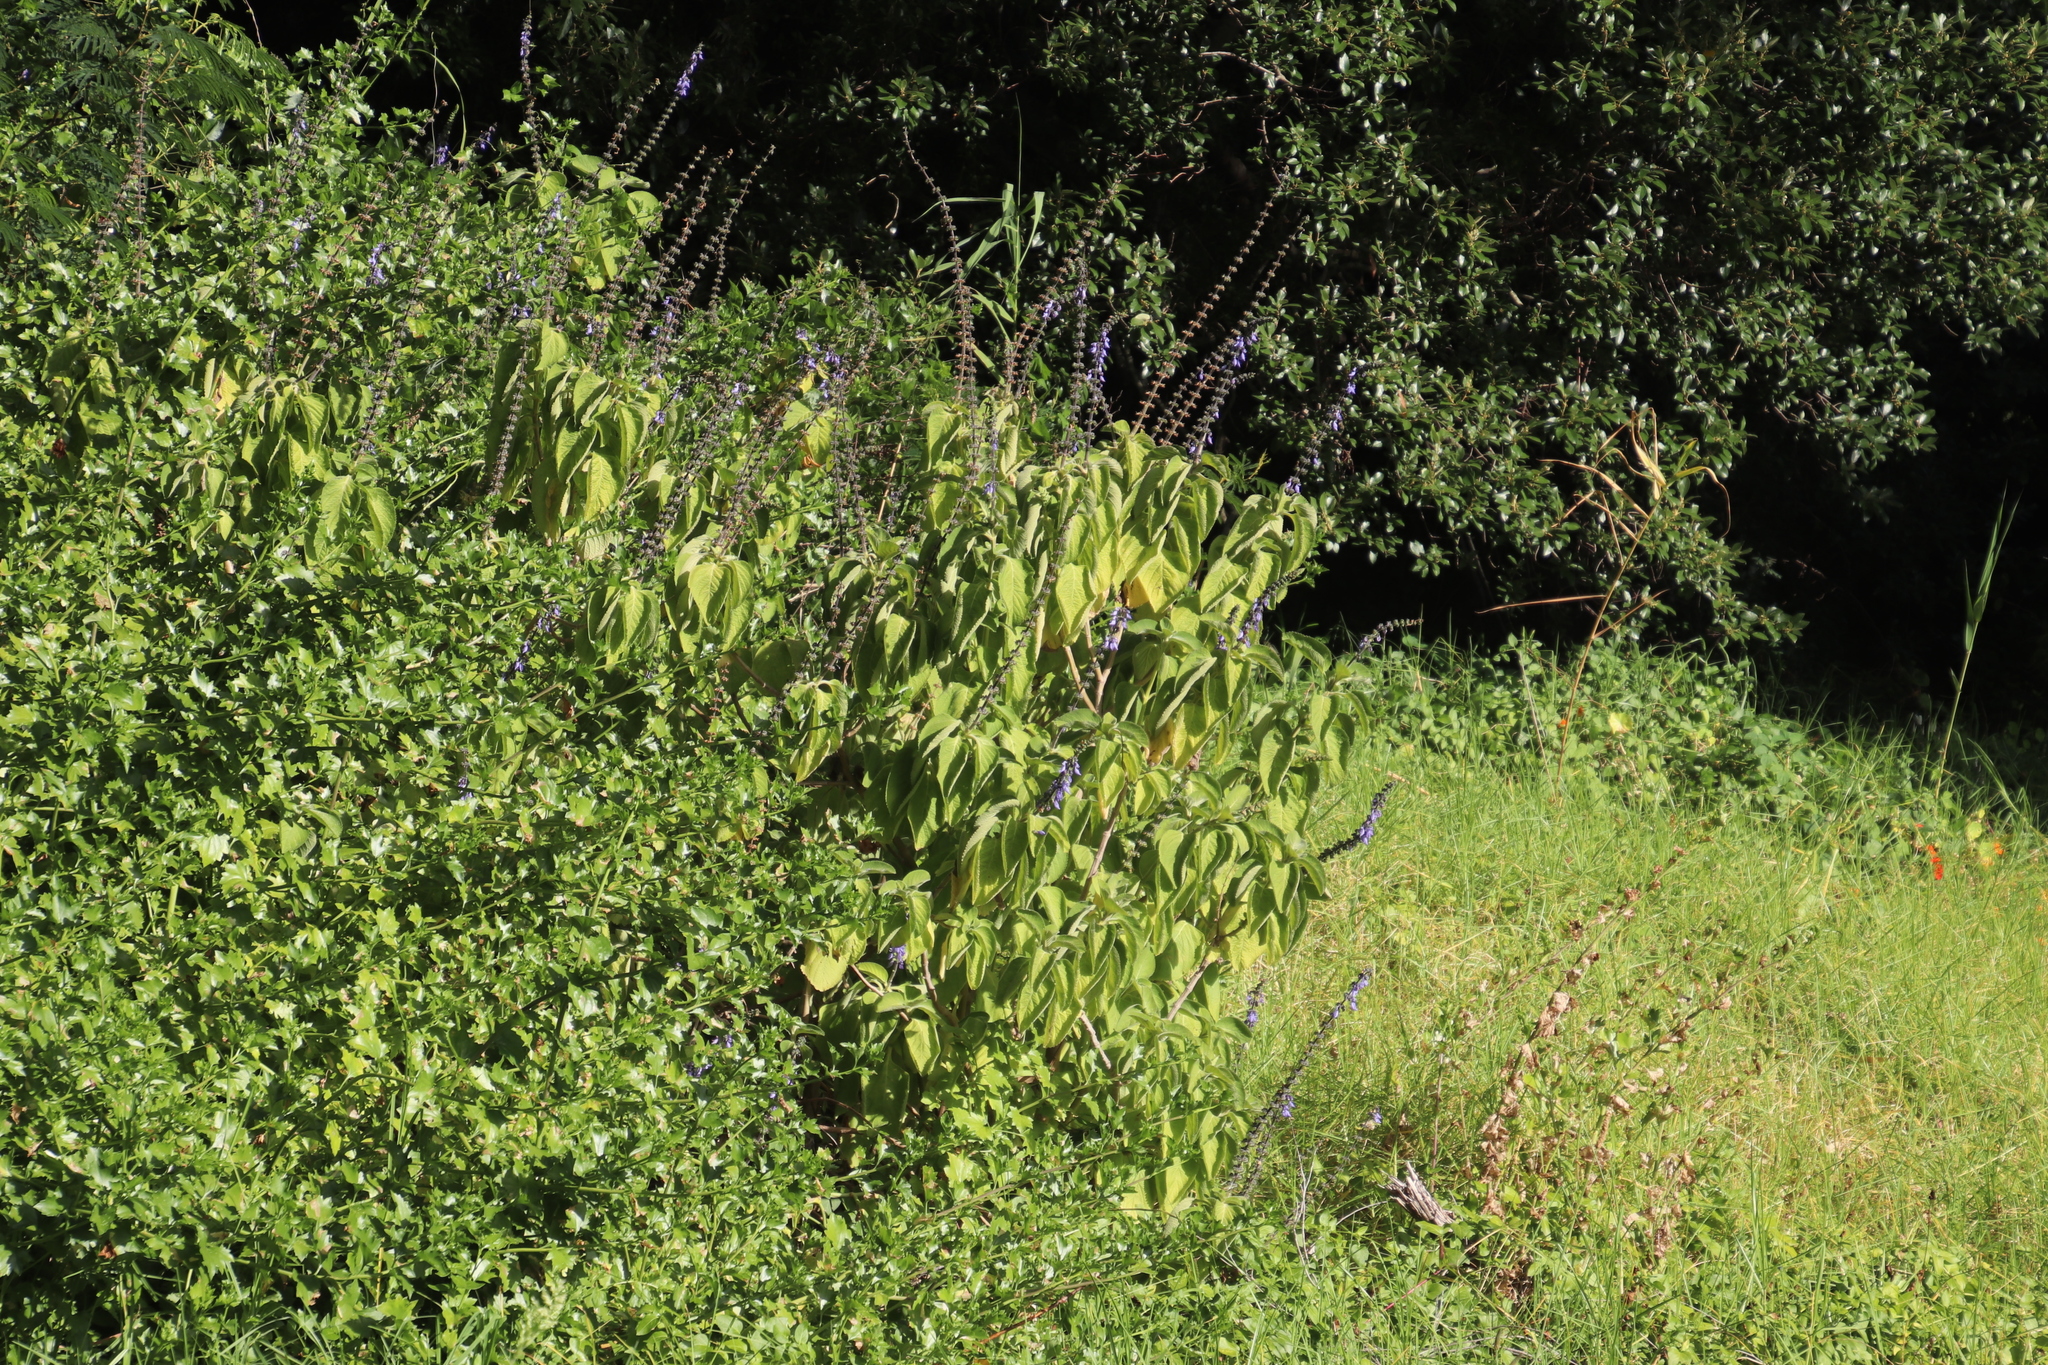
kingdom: Plantae
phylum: Tracheophyta
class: Magnoliopsida
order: Lamiales
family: Lamiaceae
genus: Coleus
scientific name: Coleus barbatus
